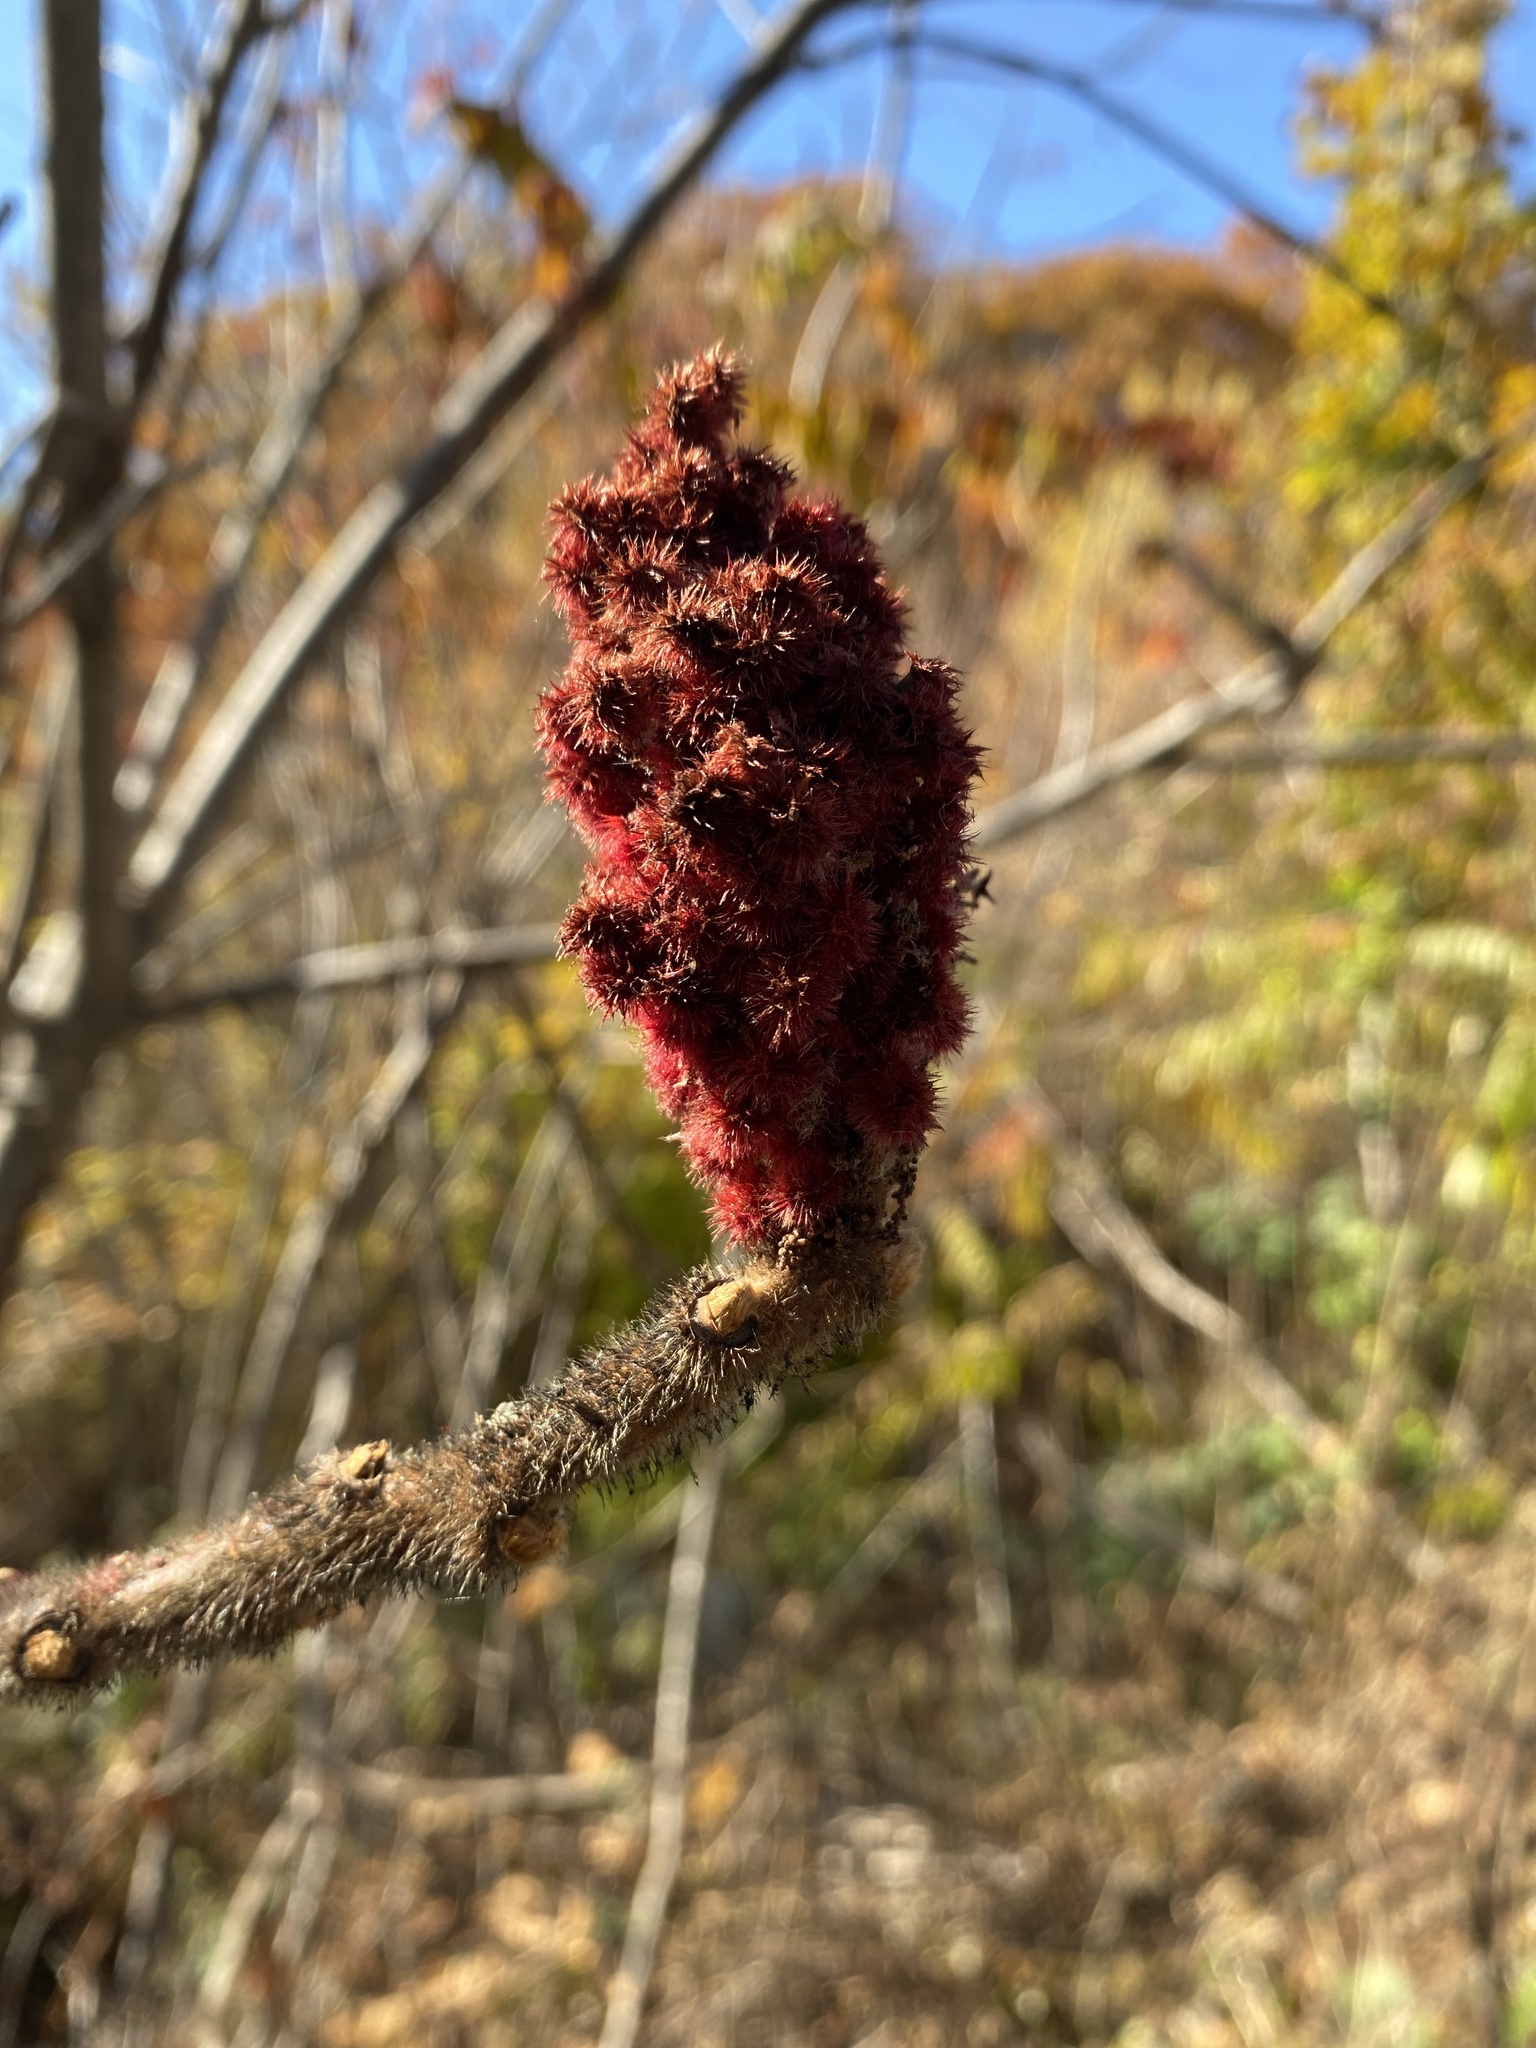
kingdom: Plantae
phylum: Tracheophyta
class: Magnoliopsida
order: Sapindales
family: Anacardiaceae
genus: Rhus
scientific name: Rhus typhina
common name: Staghorn sumac
